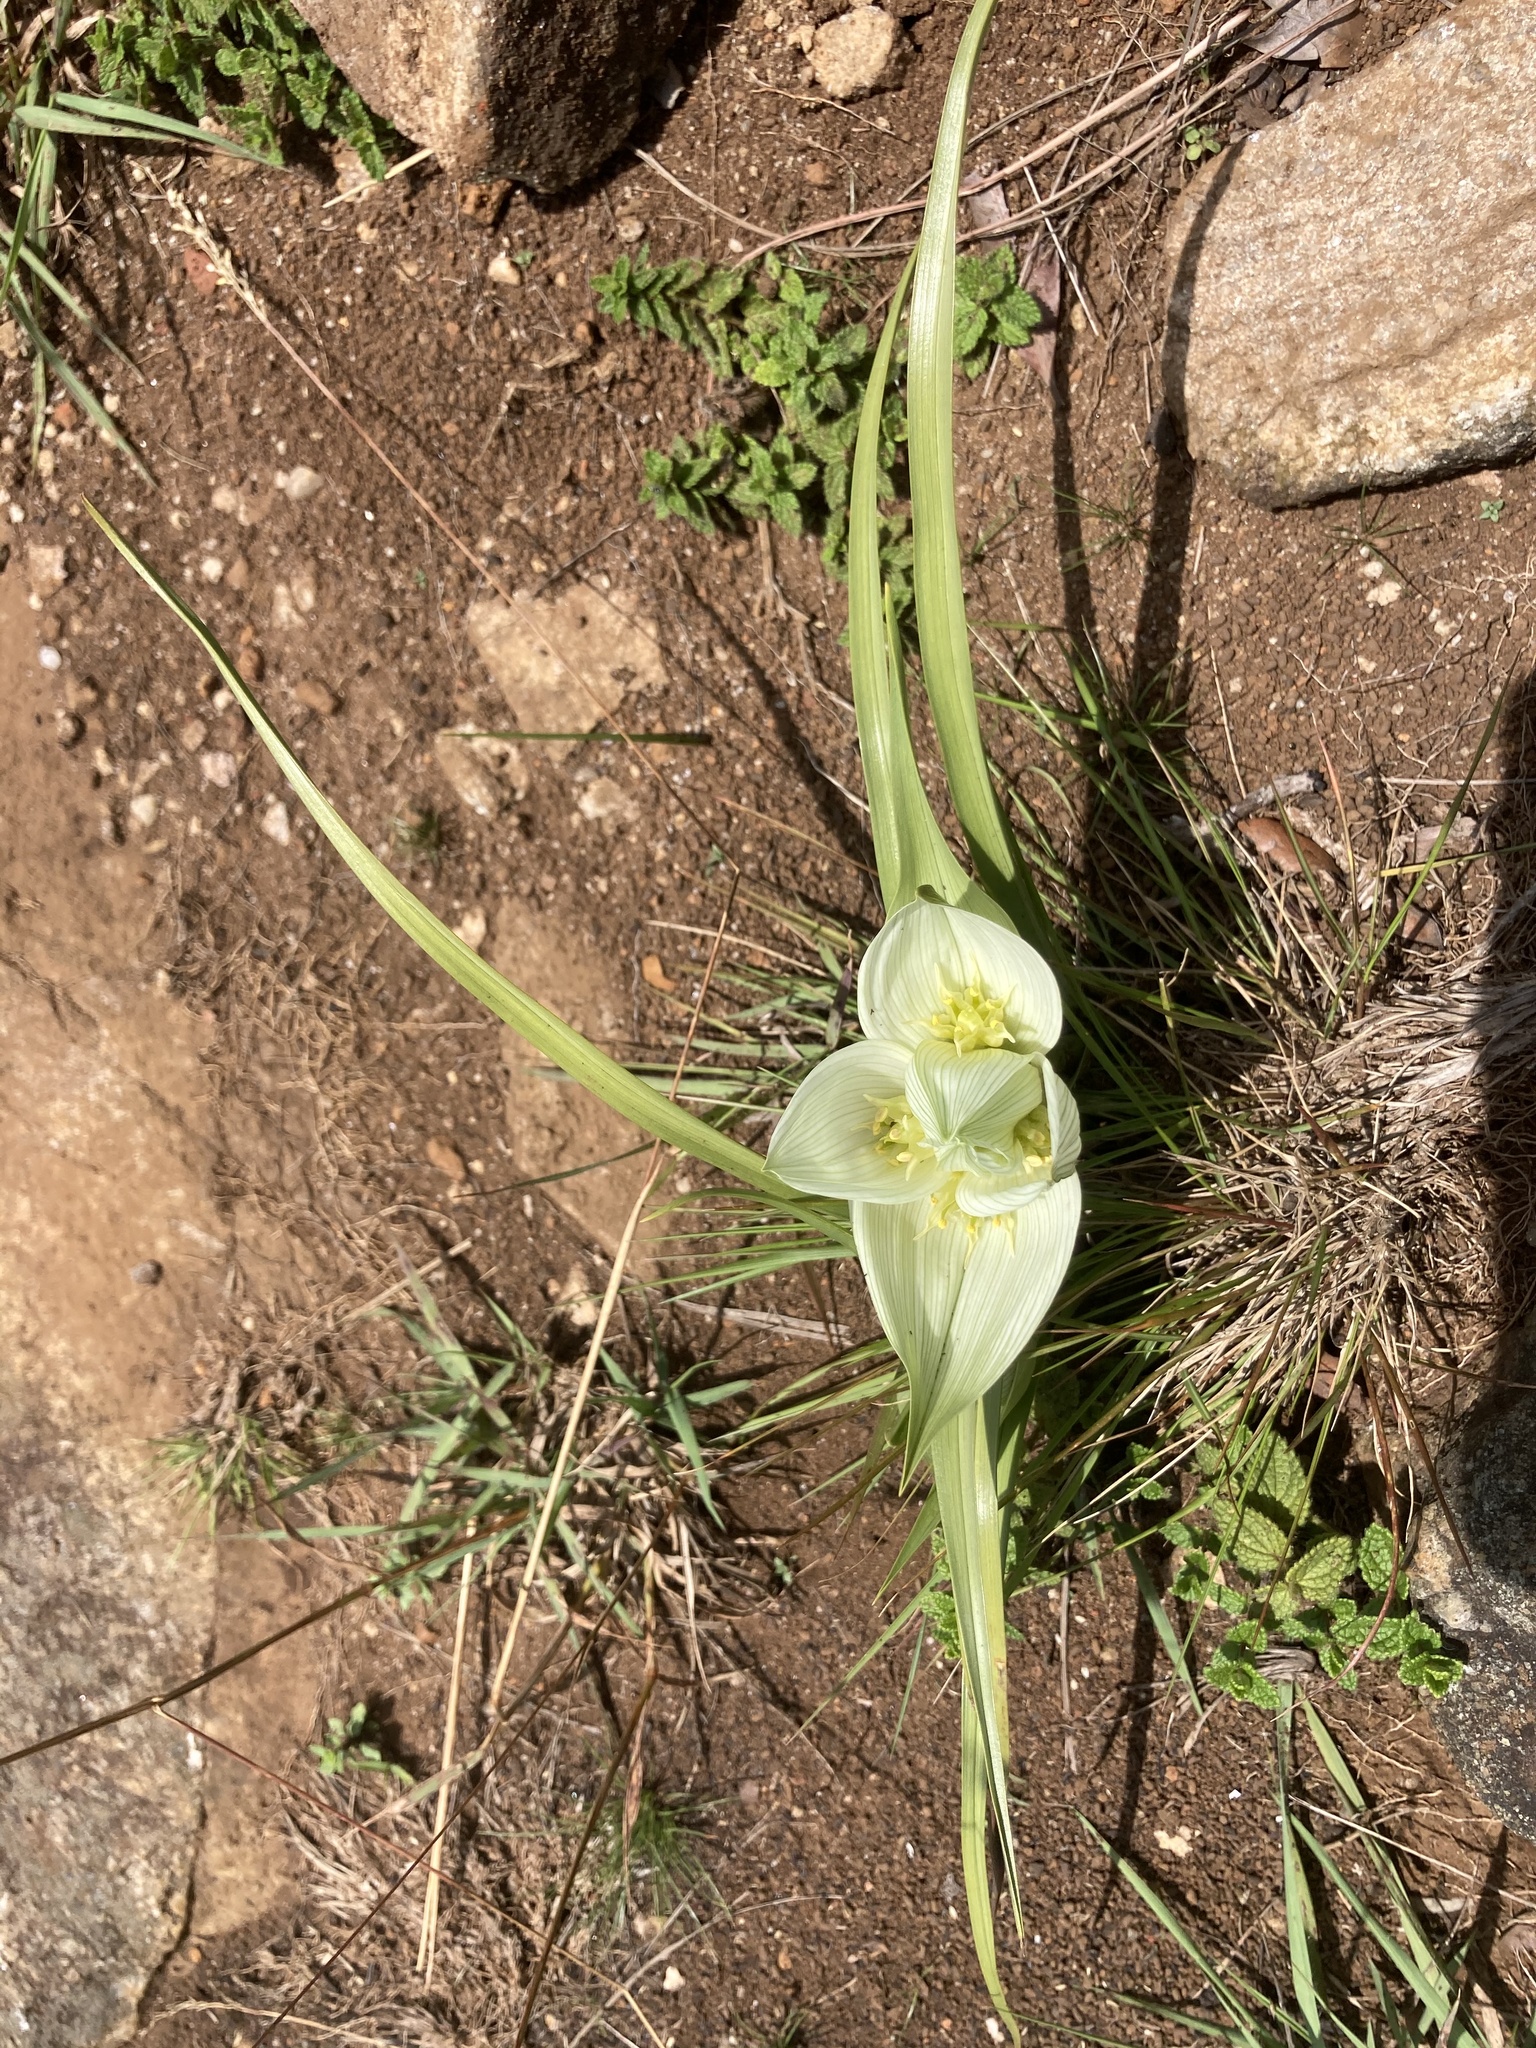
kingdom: Plantae
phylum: Tracheophyta
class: Liliopsida
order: Liliales
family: Colchicaceae
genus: Colchicum
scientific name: Colchicum striatum
